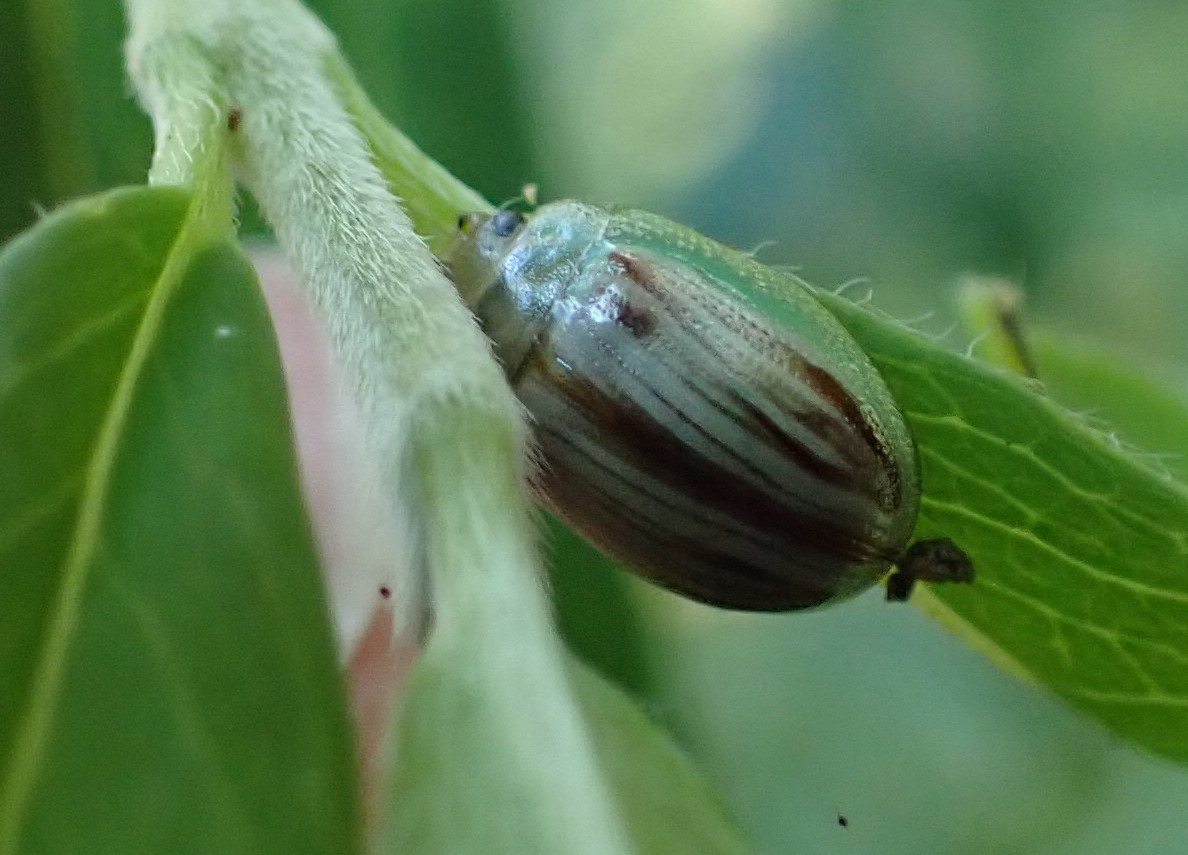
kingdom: Animalia
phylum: Arthropoda
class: Insecta
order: Coleoptera
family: Chrysomelidae
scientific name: Chrysomelidae
